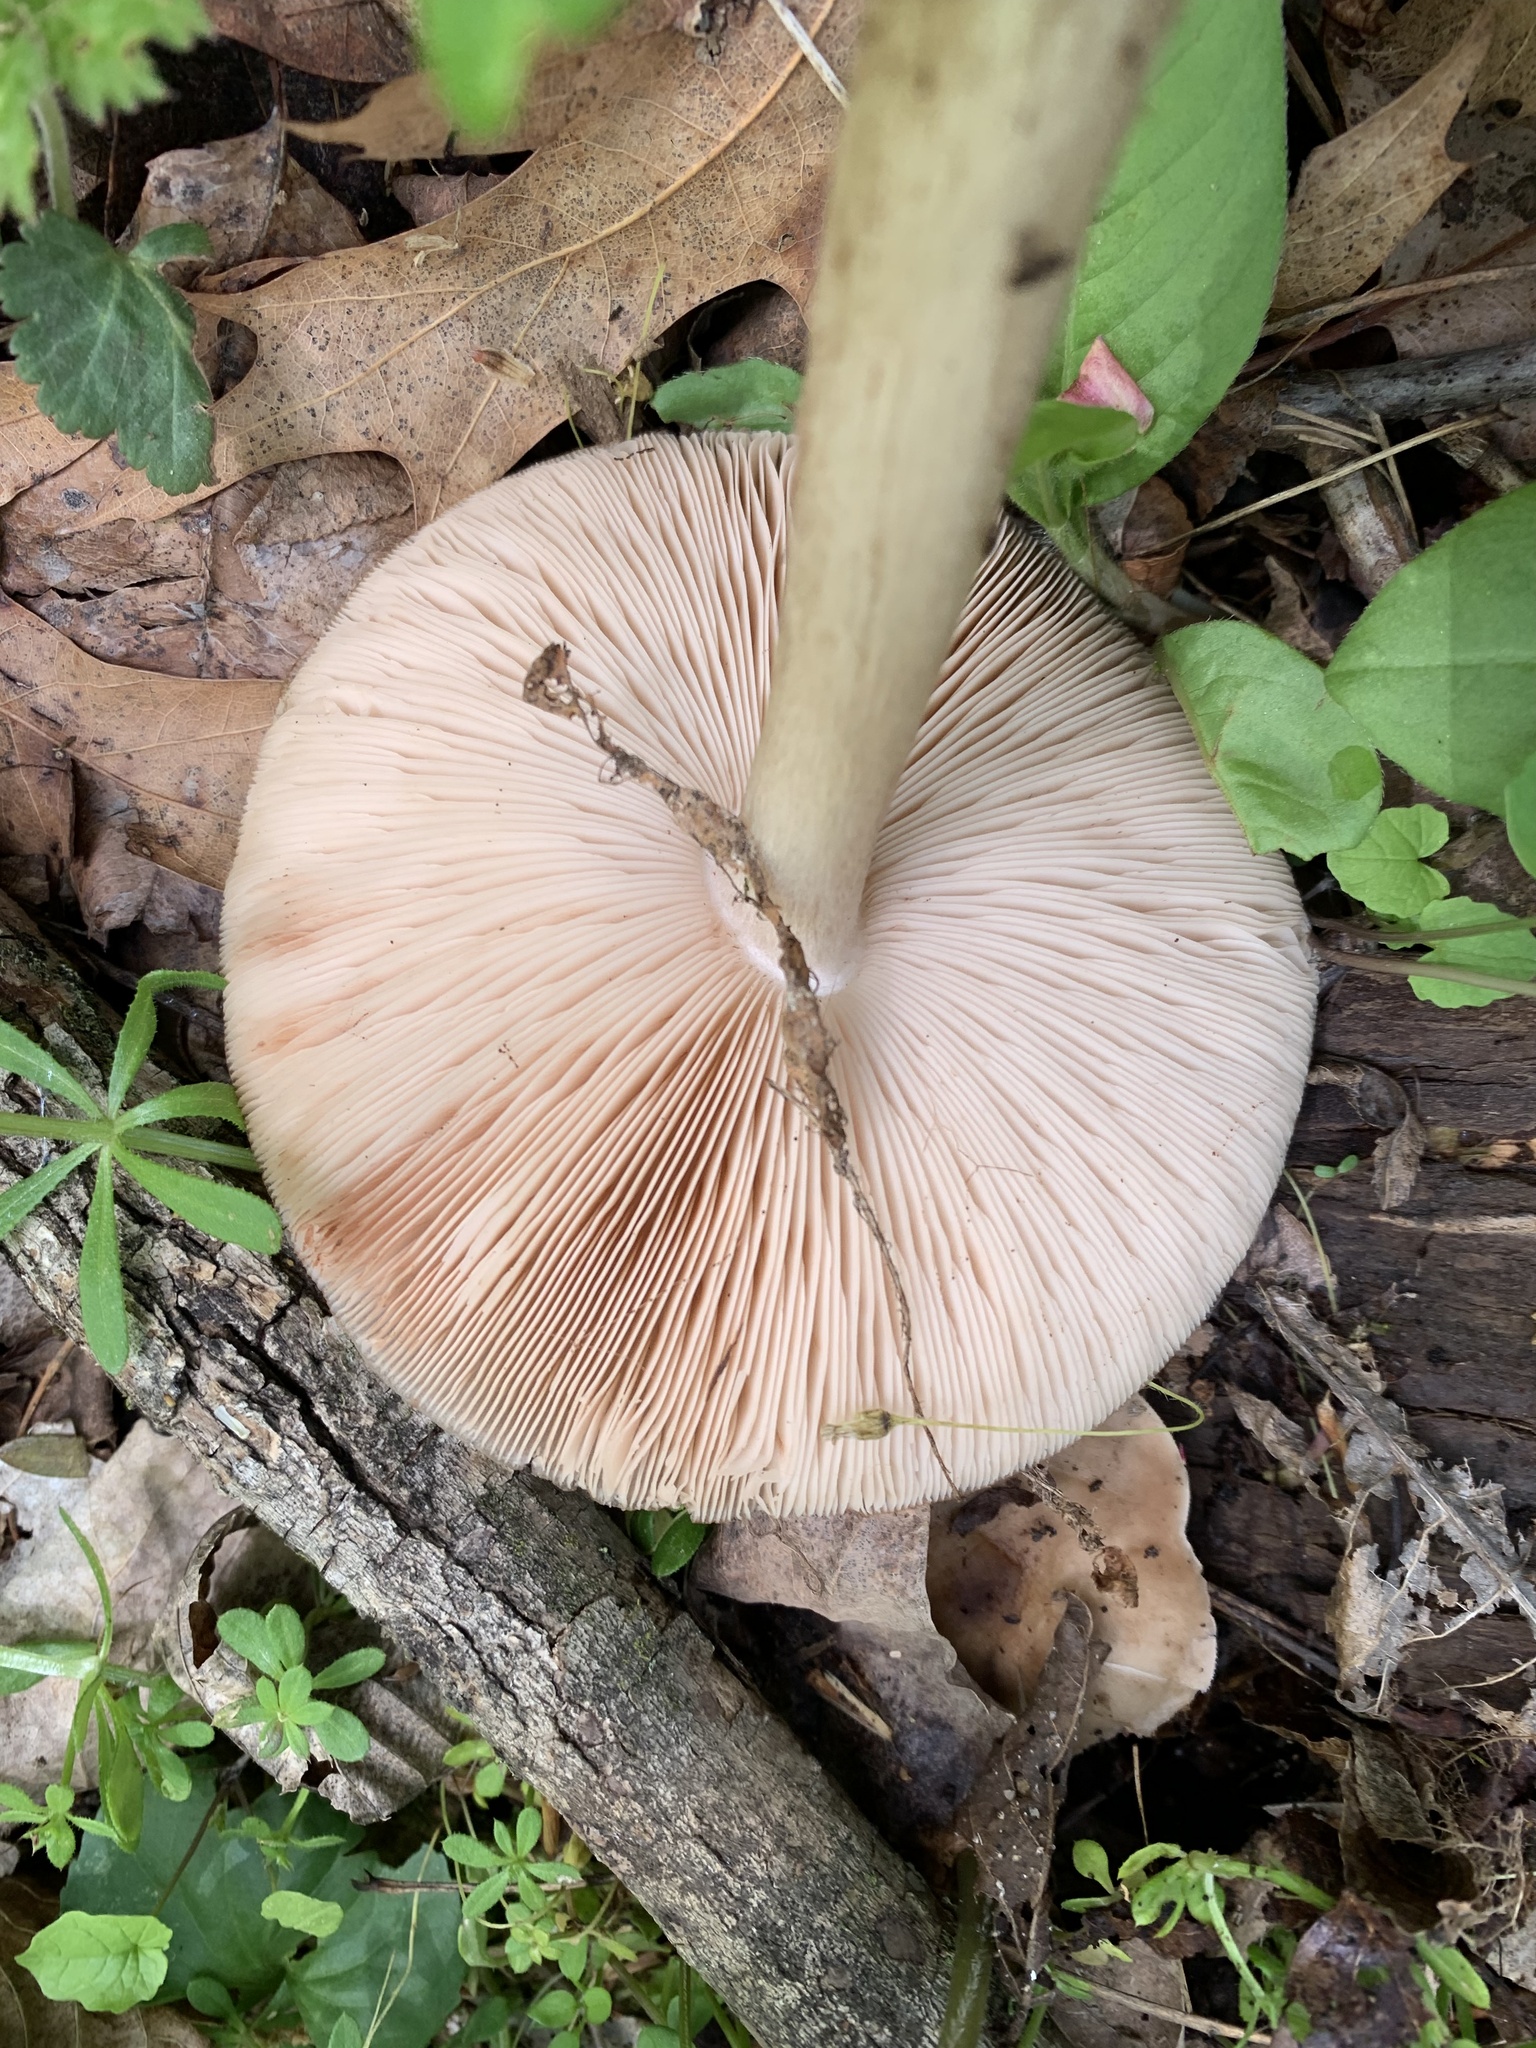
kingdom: Fungi
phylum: Basidiomycota
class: Agaricomycetes
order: Agaricales
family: Pluteaceae
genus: Pluteus
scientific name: Pluteus cervinus
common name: Deer shield
